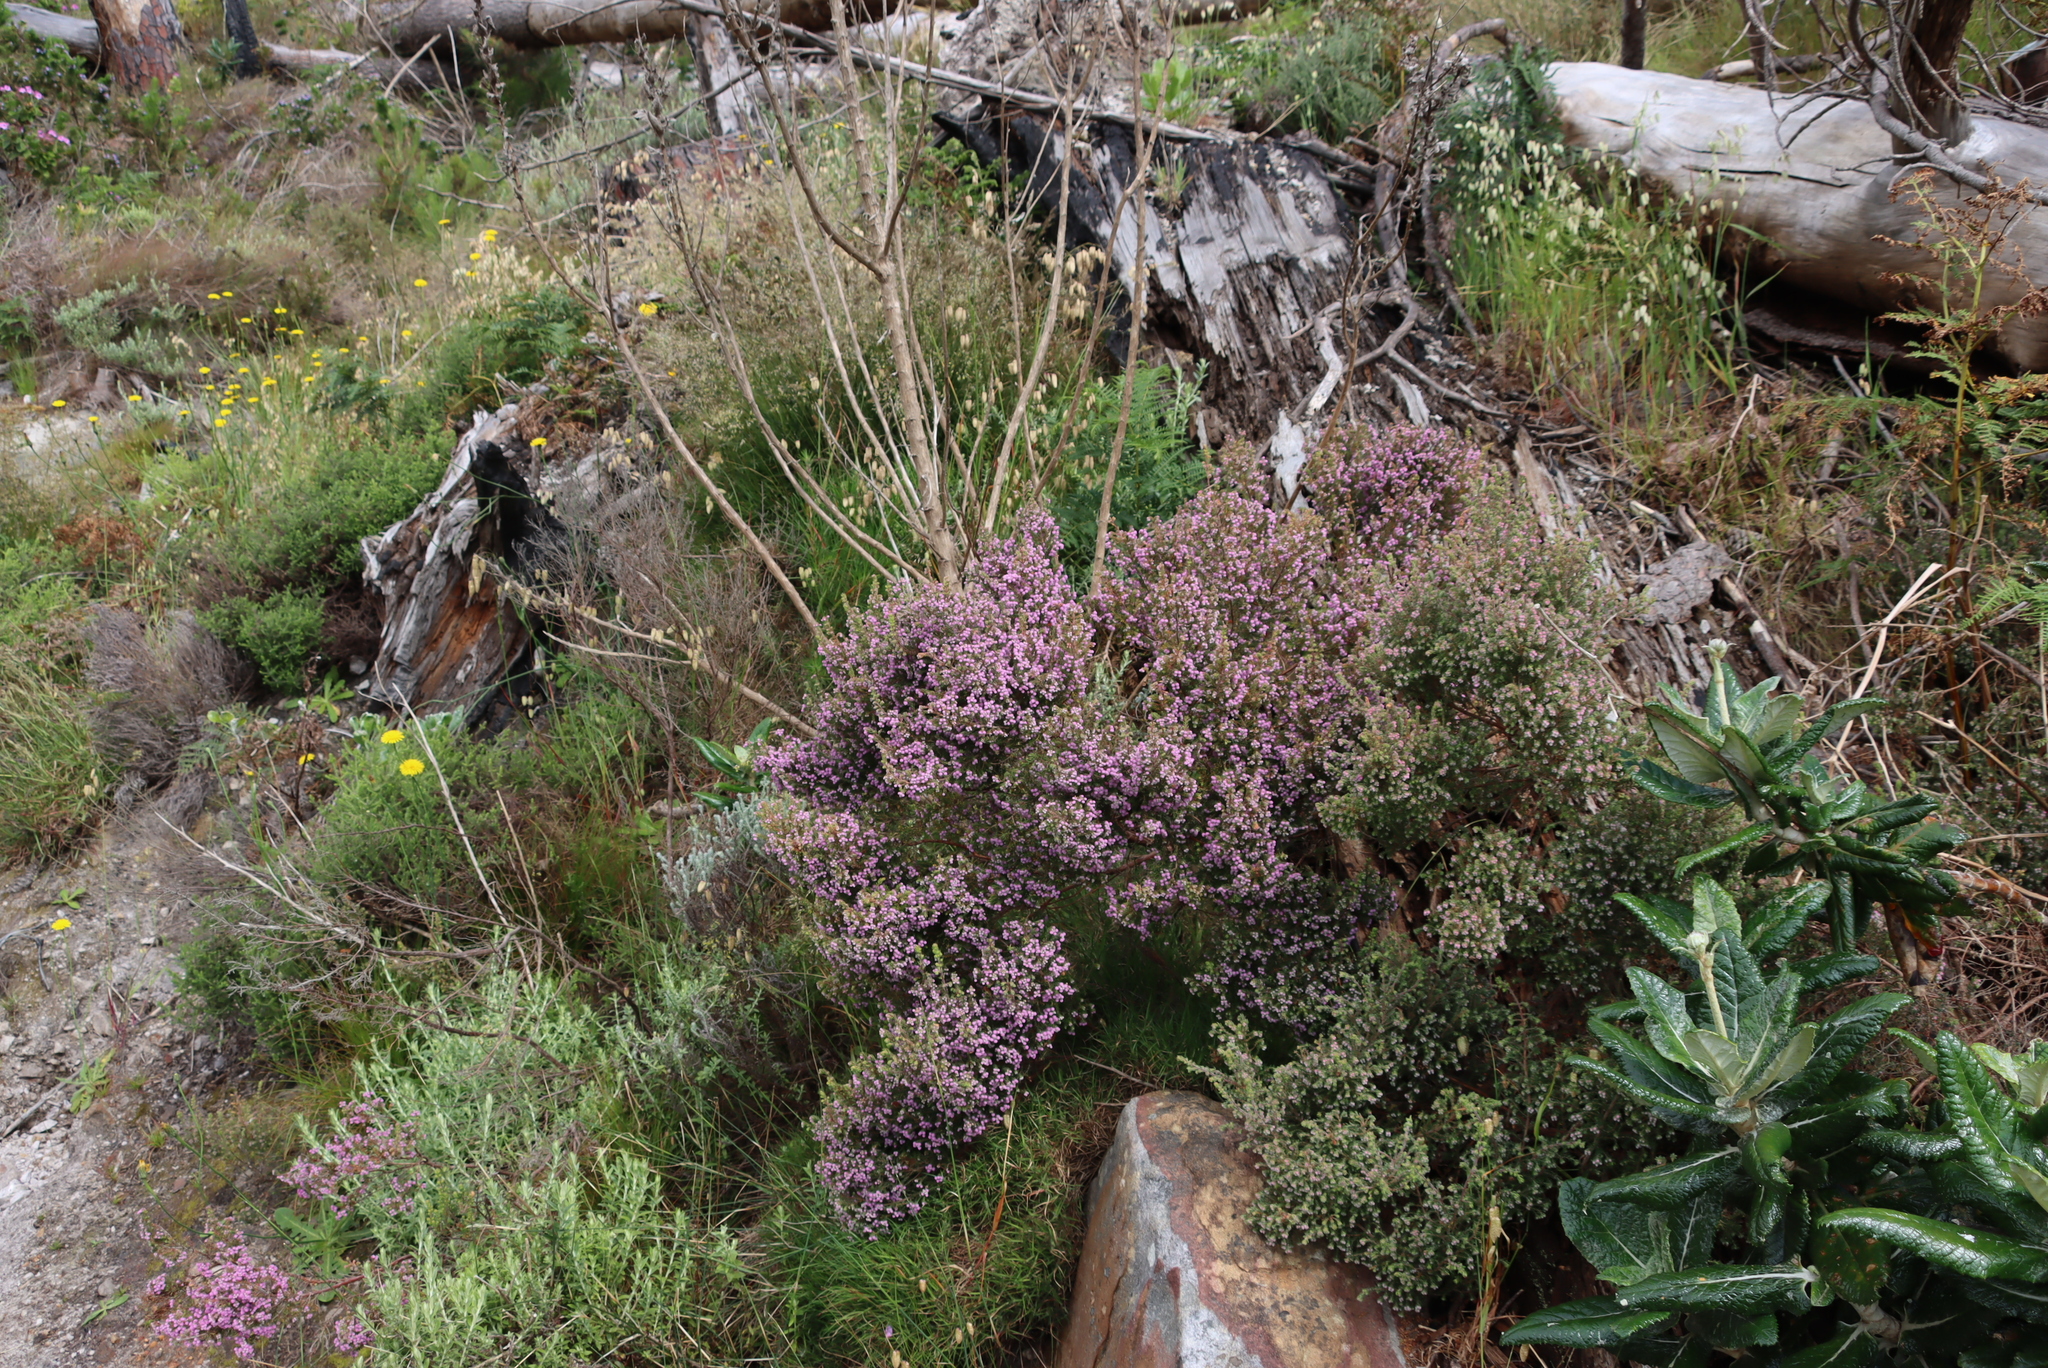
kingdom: Plantae
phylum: Tracheophyta
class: Magnoliopsida
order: Ericales
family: Ericaceae
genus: Erica
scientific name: Erica hirtiflora
